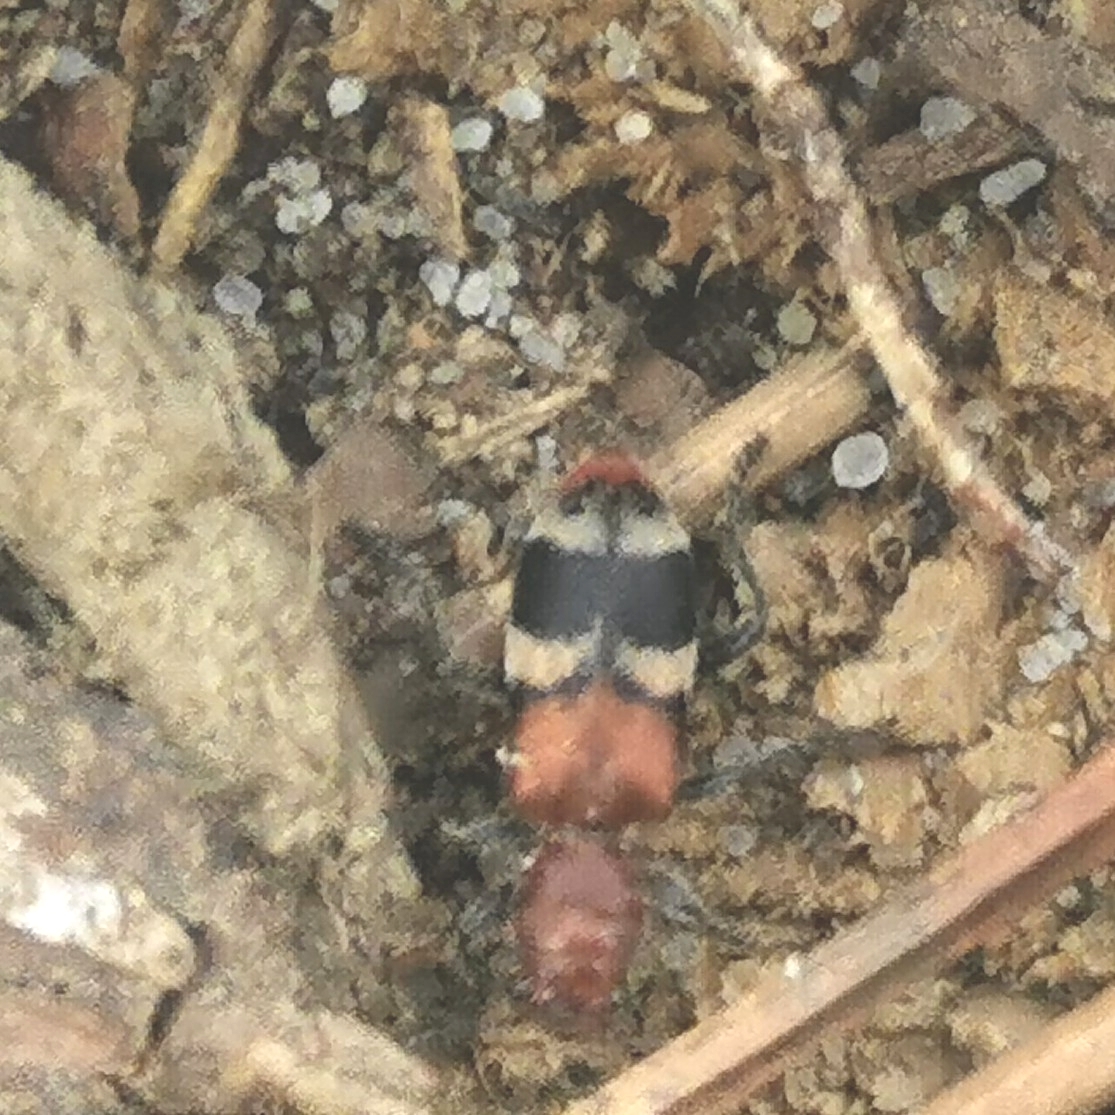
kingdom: Animalia
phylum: Arthropoda
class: Insecta
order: Coleoptera
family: Cleridae
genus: Enoclerus
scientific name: Enoclerus nigripes
